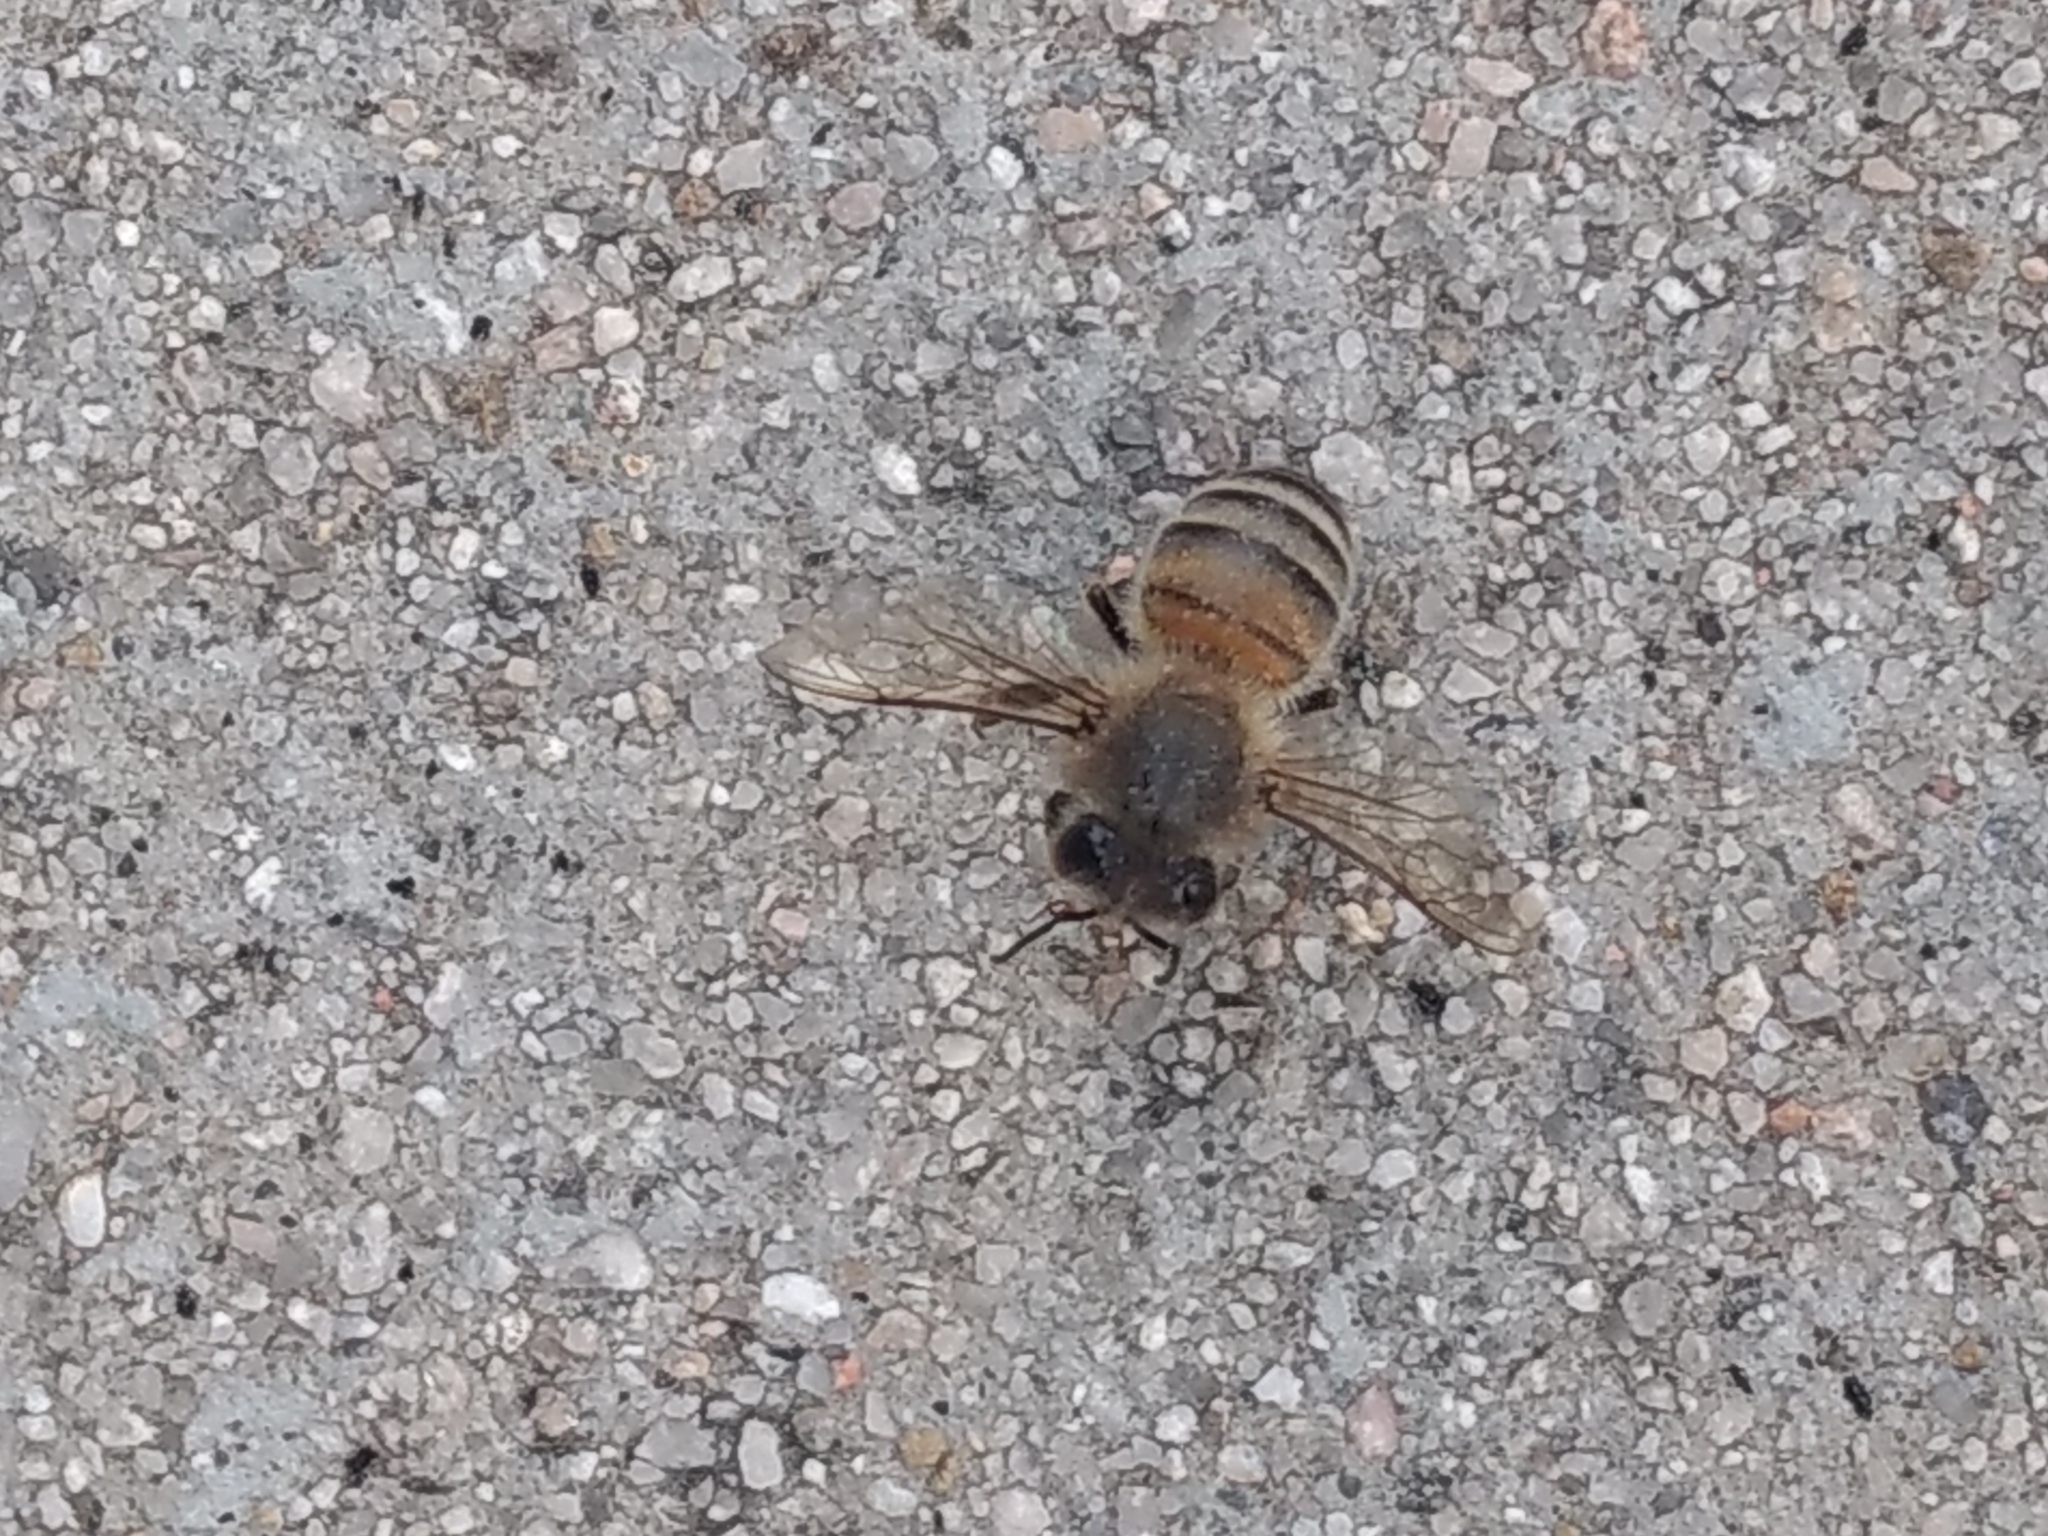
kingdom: Animalia
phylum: Arthropoda
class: Insecta
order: Hymenoptera
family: Apidae
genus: Apis
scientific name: Apis mellifera
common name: Honey bee
